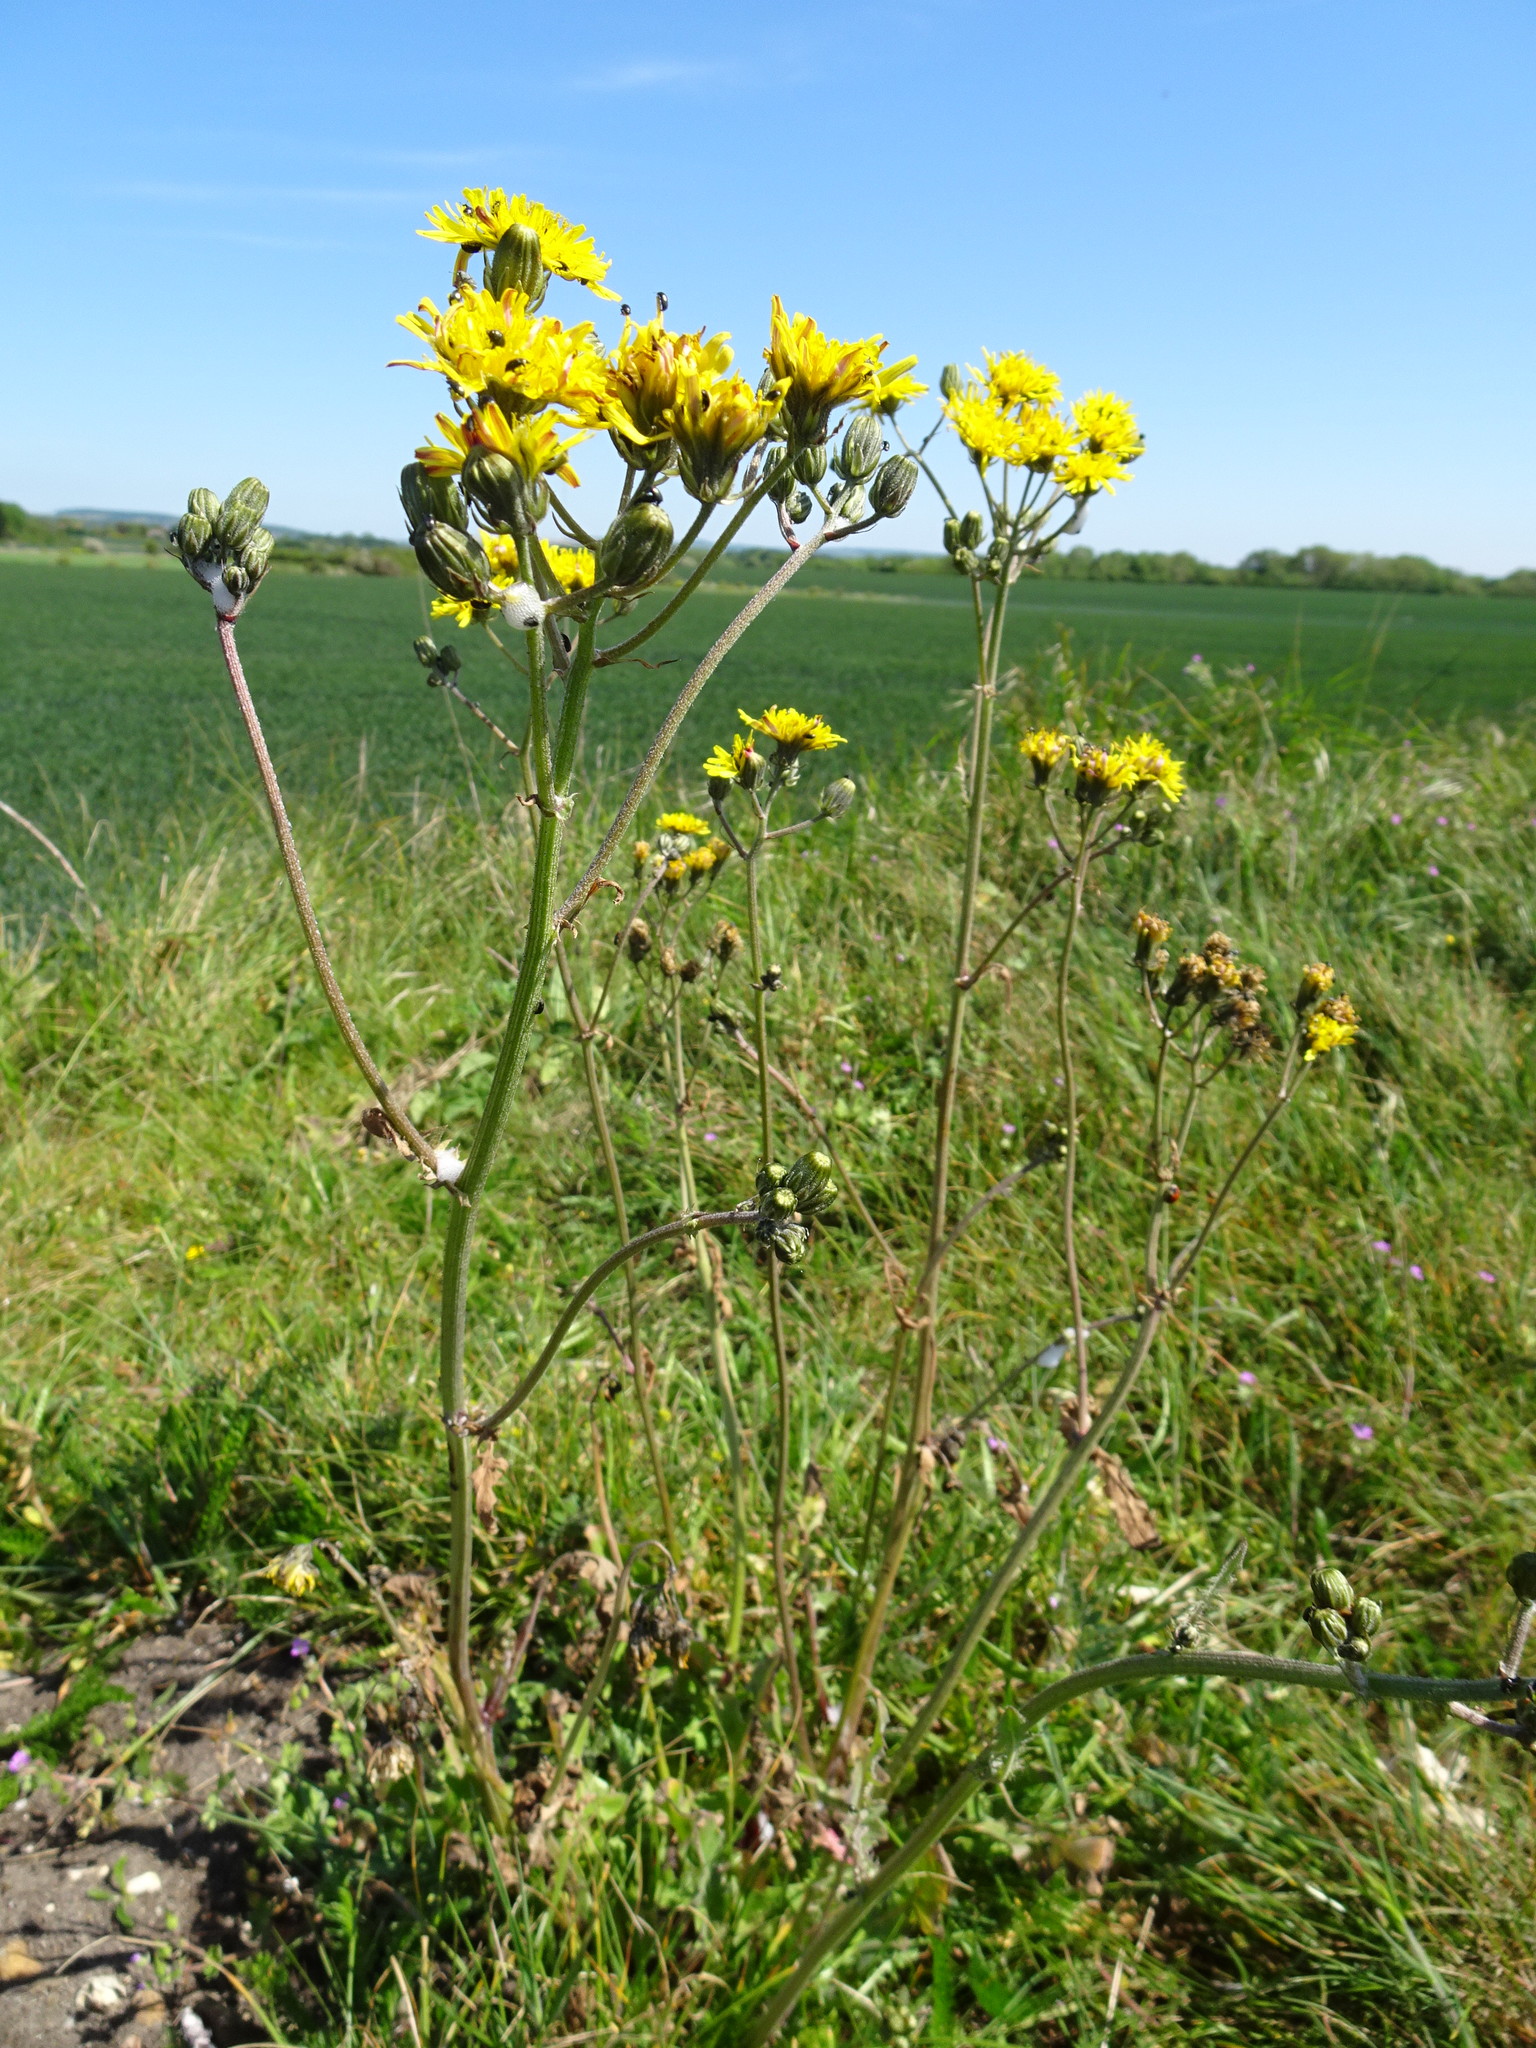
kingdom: Plantae
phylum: Tracheophyta
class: Magnoliopsida
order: Asterales
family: Asteraceae
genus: Crepis
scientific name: Crepis vesicaria
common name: Beaked hawksbeard
